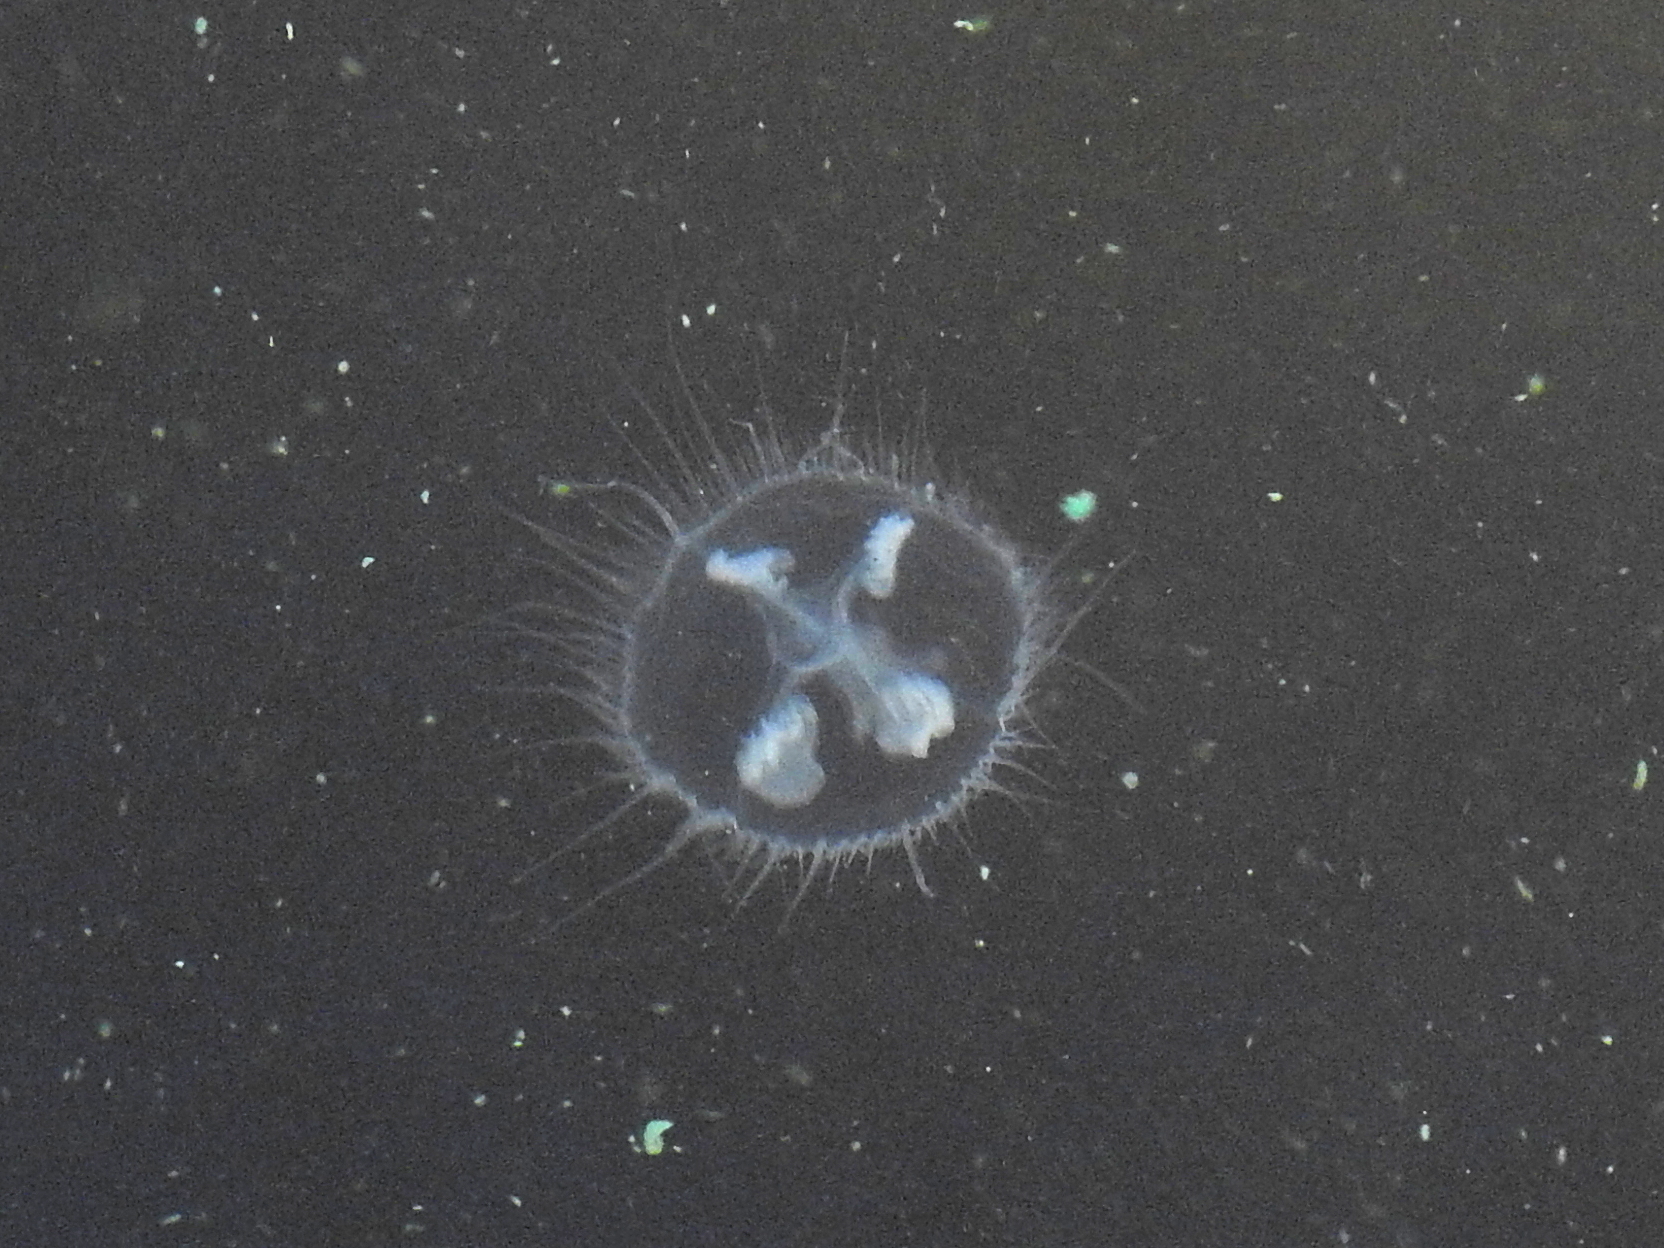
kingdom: Animalia
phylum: Cnidaria
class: Hydrozoa
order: Limnomedusae
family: Olindiidae
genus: Craspedacusta
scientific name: Craspedacusta sowerbii
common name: Freshwater jellyfish
